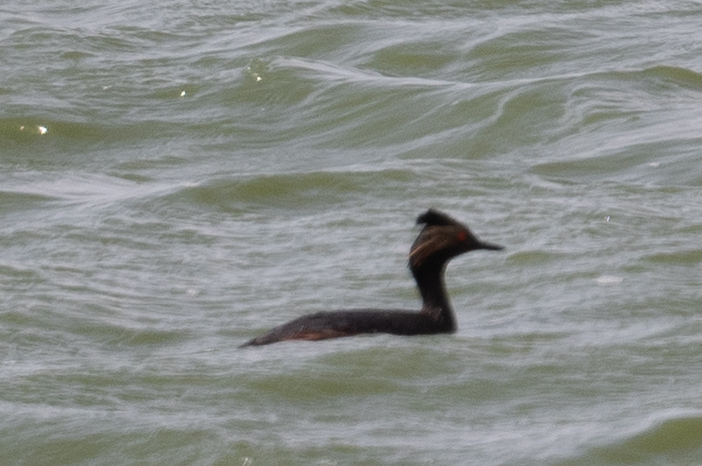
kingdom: Animalia
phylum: Chordata
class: Aves
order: Podicipediformes
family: Podicipedidae
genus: Podiceps
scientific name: Podiceps nigricollis
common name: Black-necked grebe
